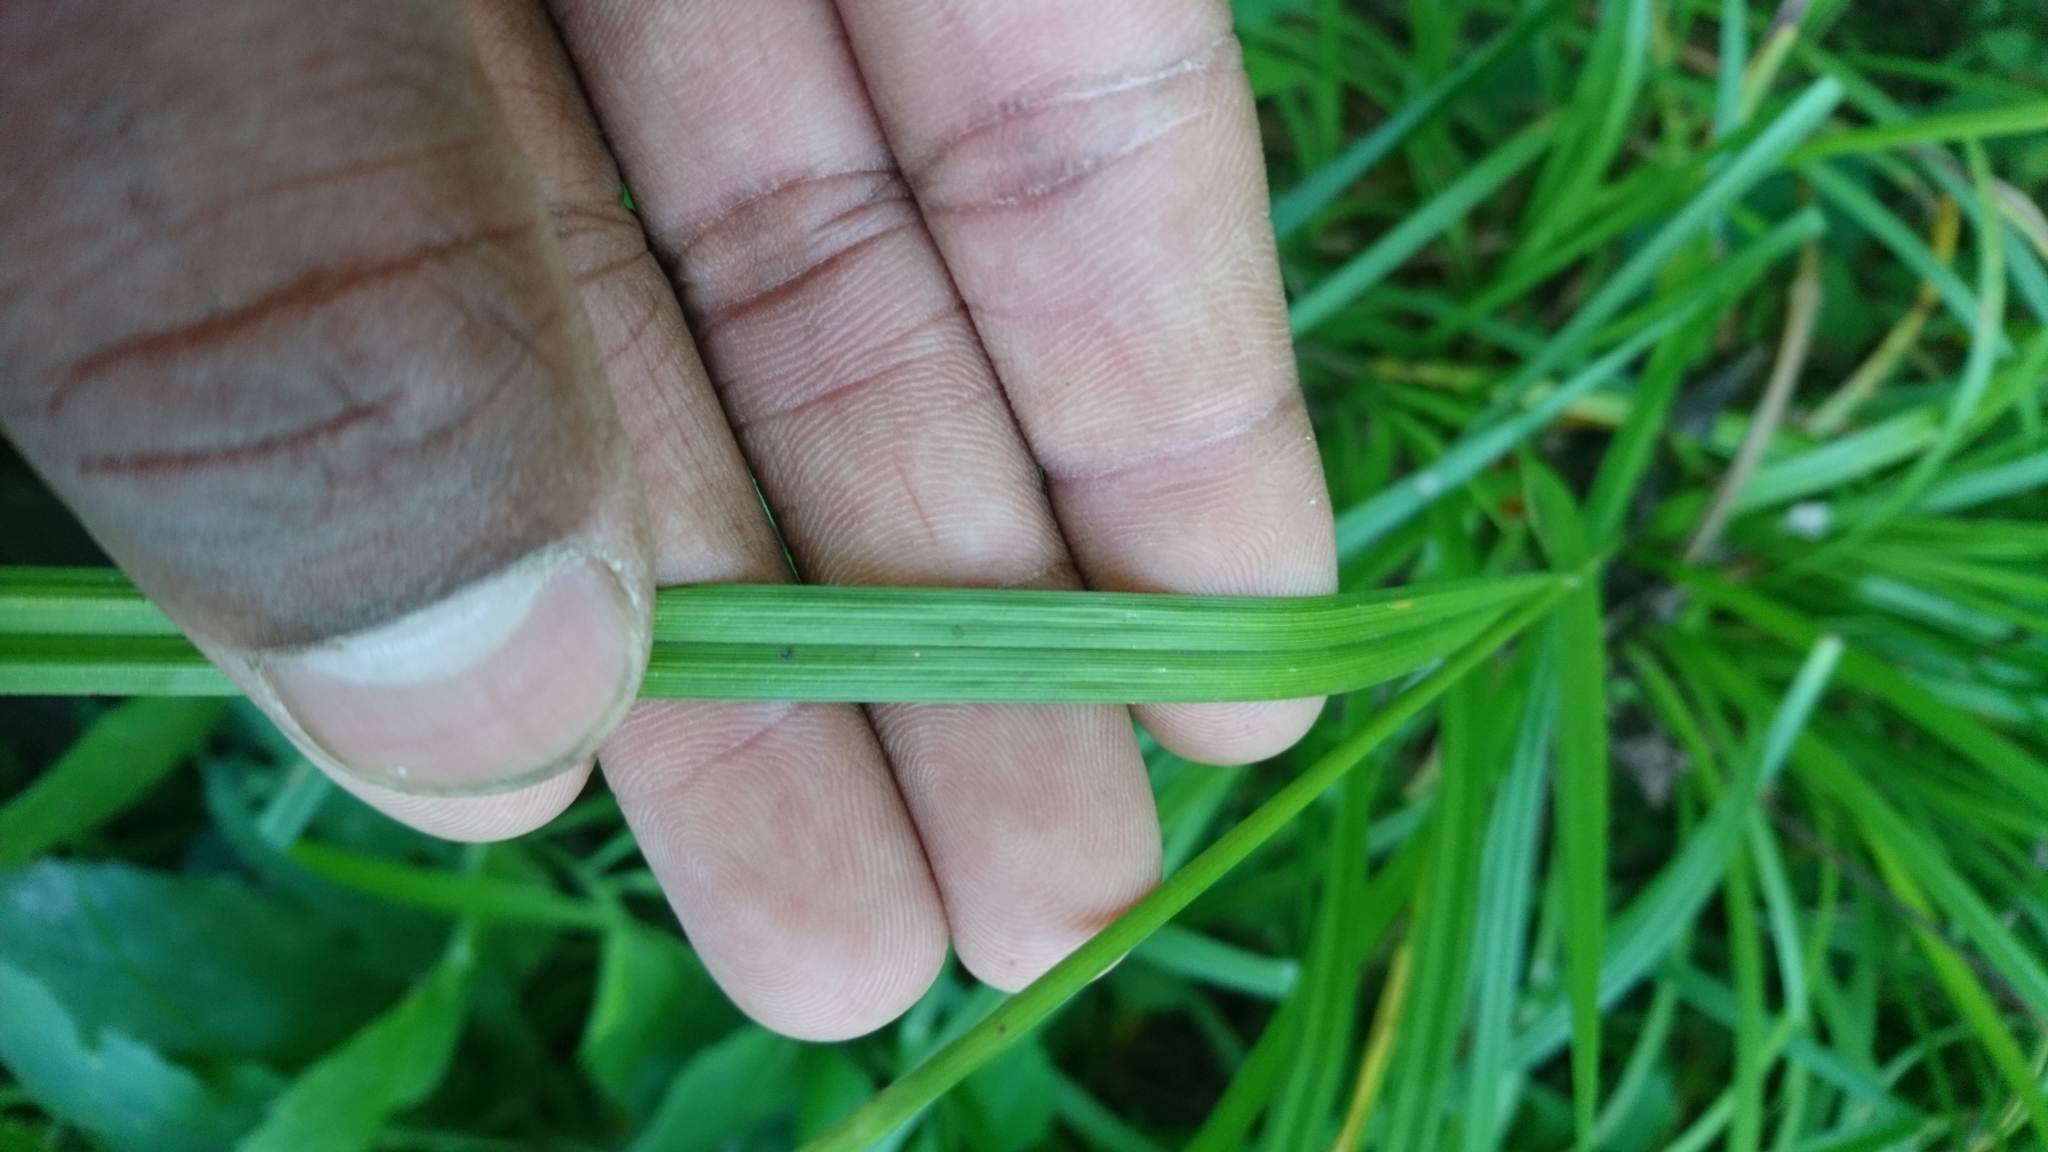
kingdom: Plantae
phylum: Tracheophyta
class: Liliopsida
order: Poales
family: Cyperaceae
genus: Carex
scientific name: Carex grayi
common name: Asa gray's sedge
